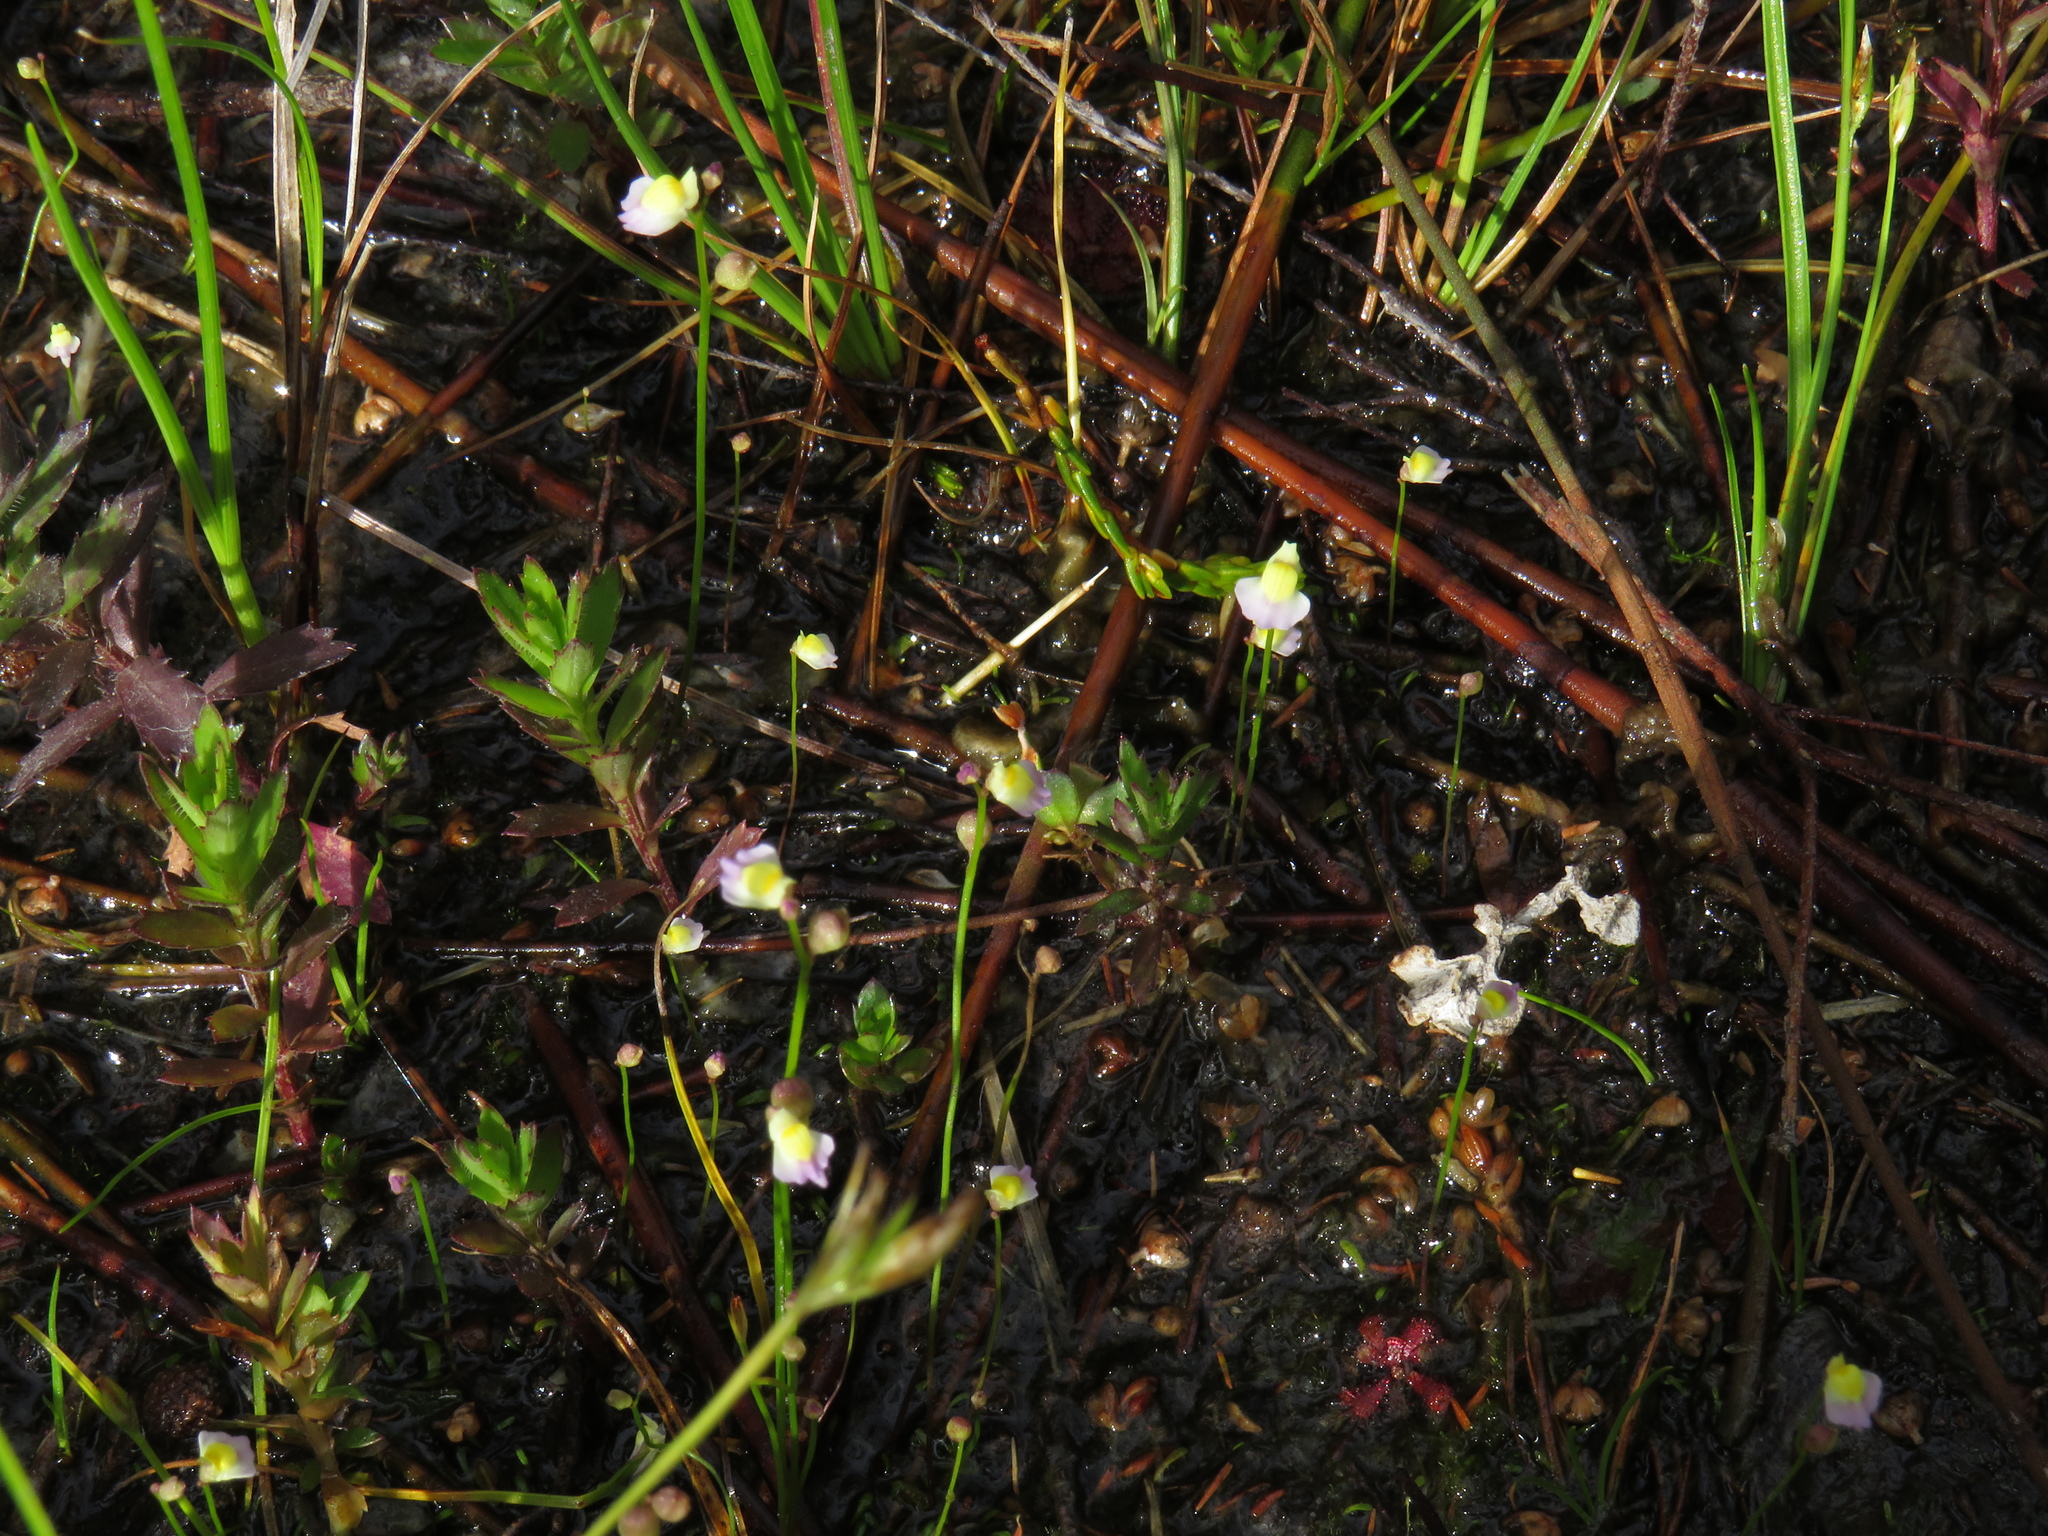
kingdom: Plantae
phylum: Tracheophyta
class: Magnoliopsida
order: Lamiales
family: Lentibulariaceae
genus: Utricularia
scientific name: Utricularia bisquamata
